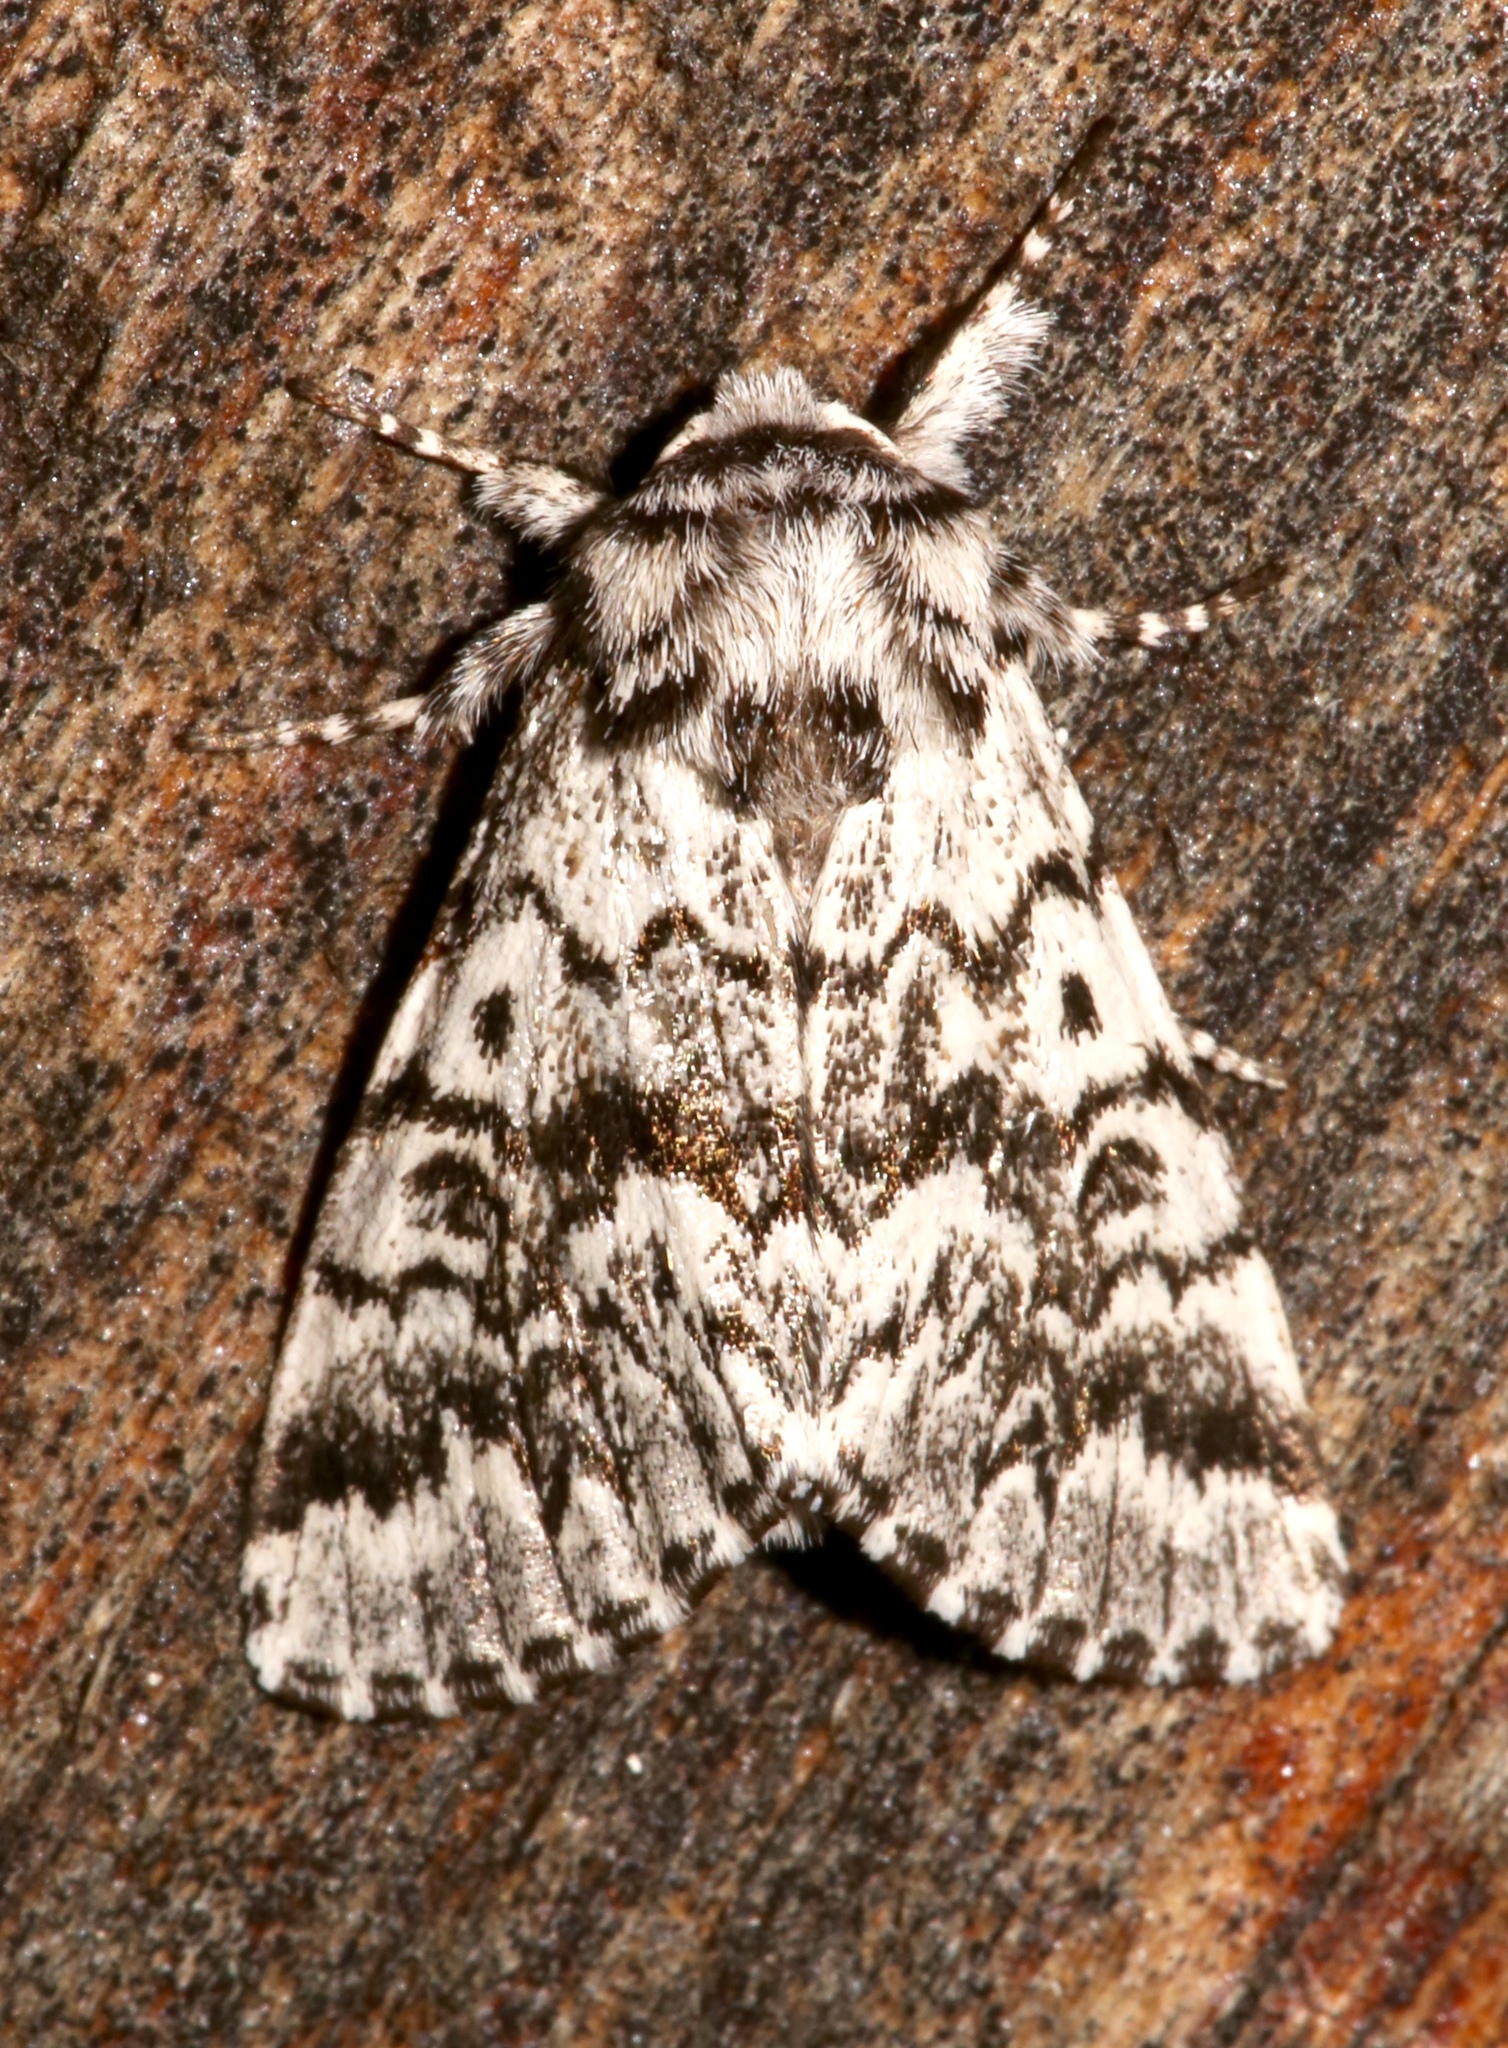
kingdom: Animalia
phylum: Arthropoda
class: Insecta
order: Lepidoptera
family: Noctuidae
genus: Panthea
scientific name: Panthea acronyctoides
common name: Black zigzag moth
